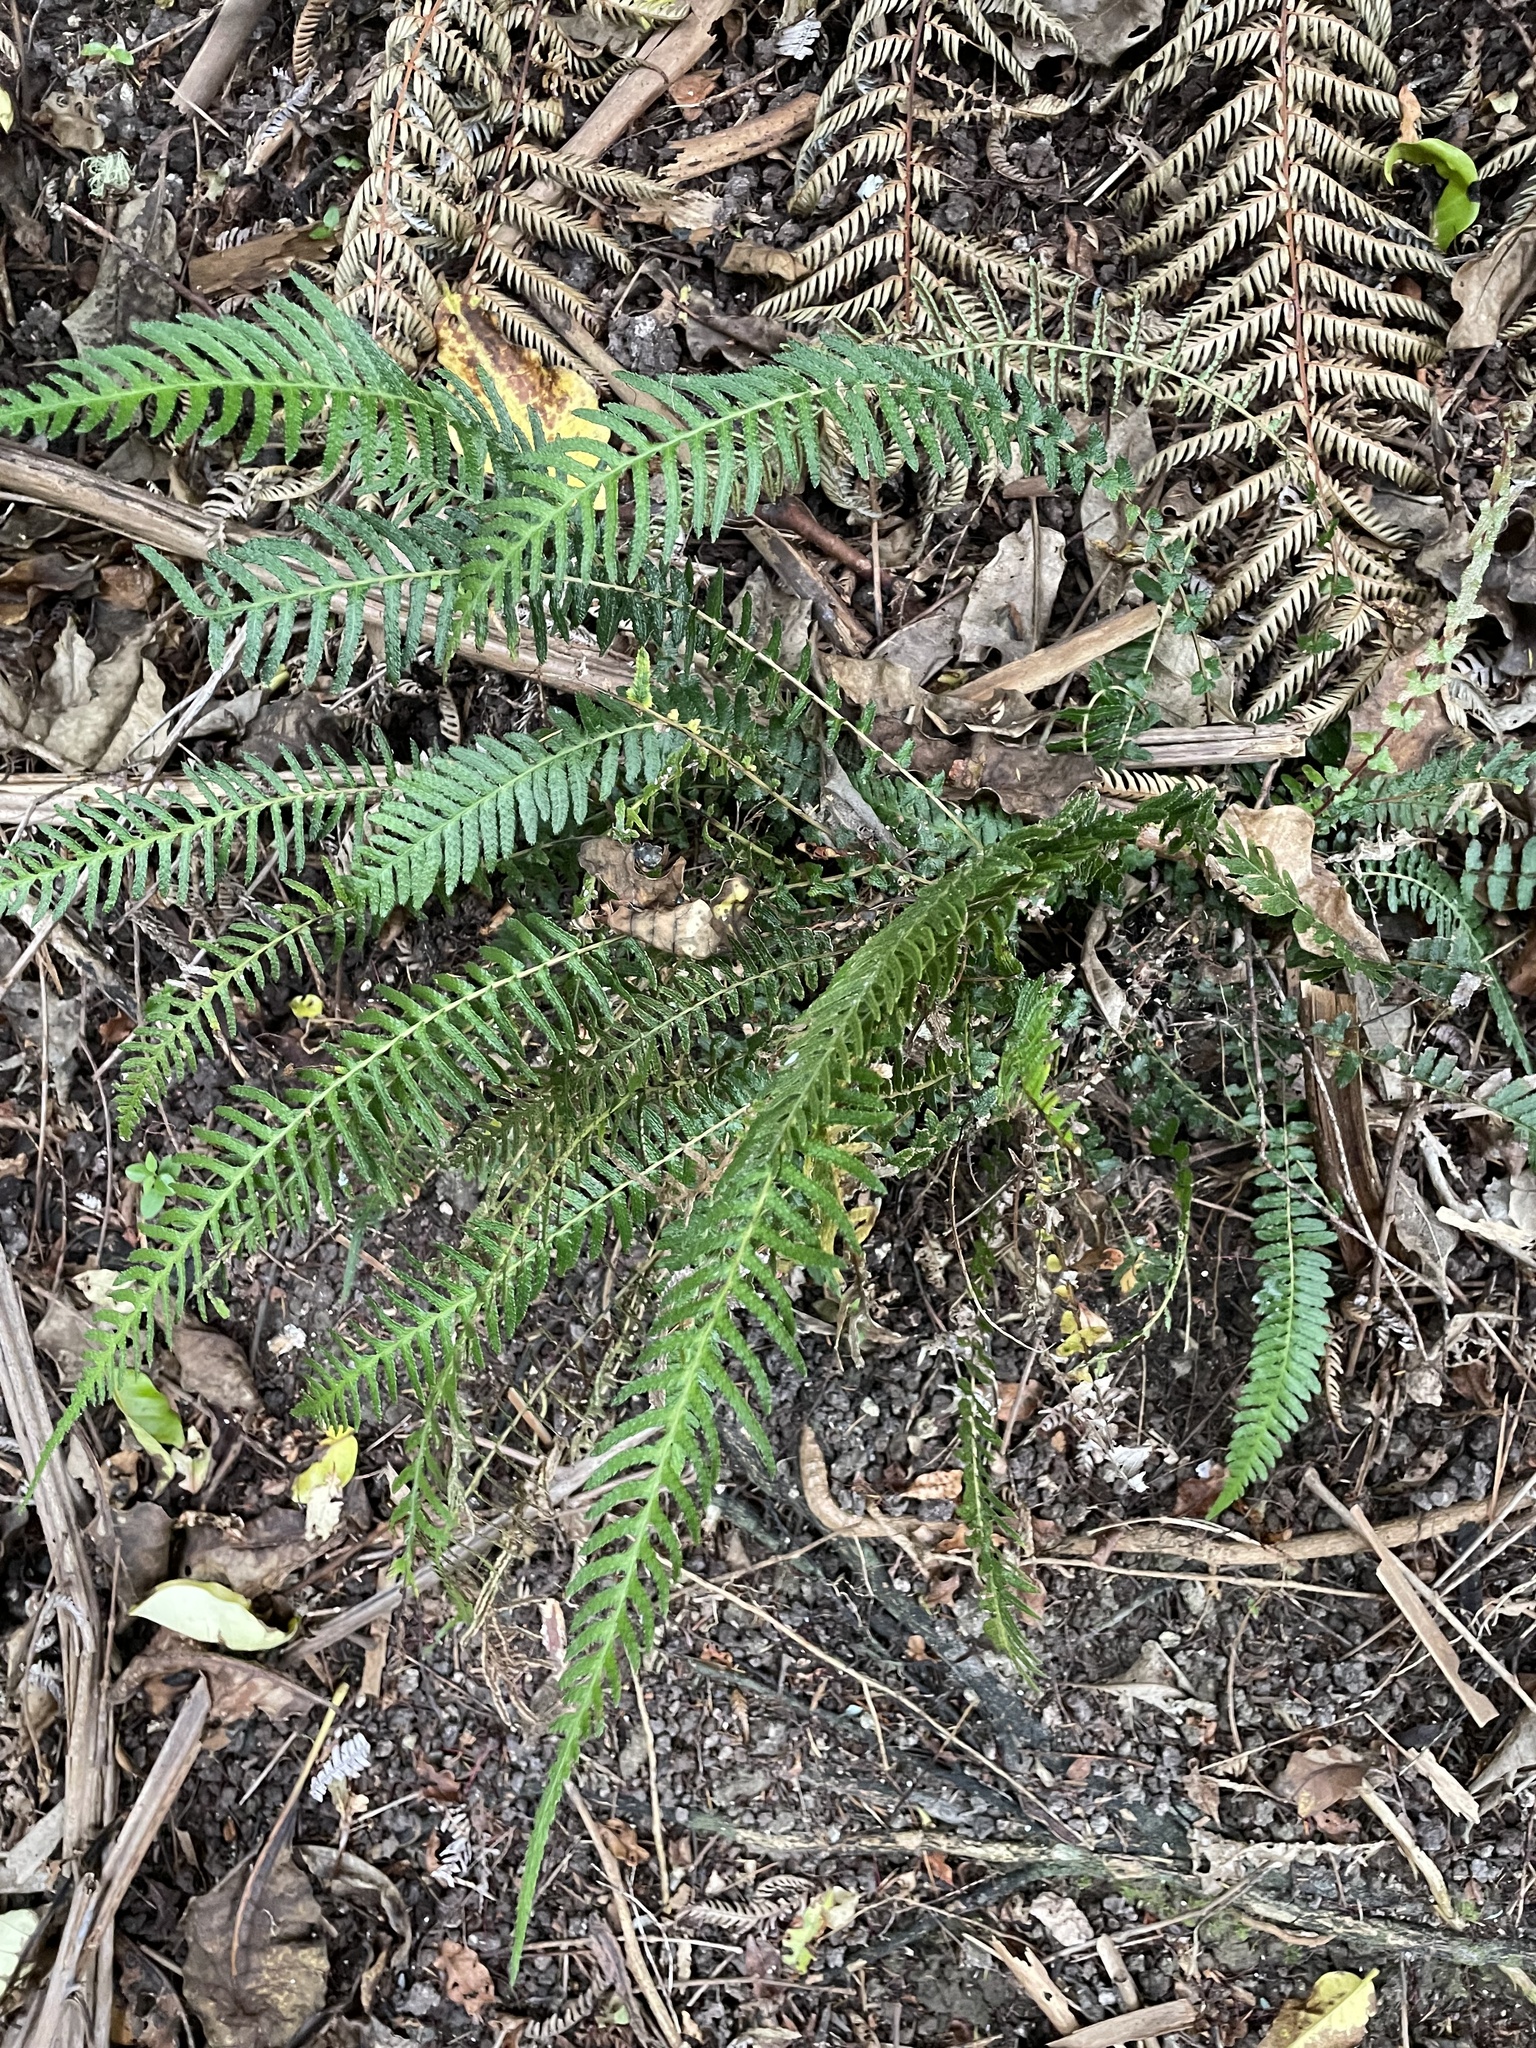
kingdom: Plantae
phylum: Tracheophyta
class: Polypodiopsida
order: Polypodiales
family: Blechnaceae
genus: Doodia
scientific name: Doodia australis
